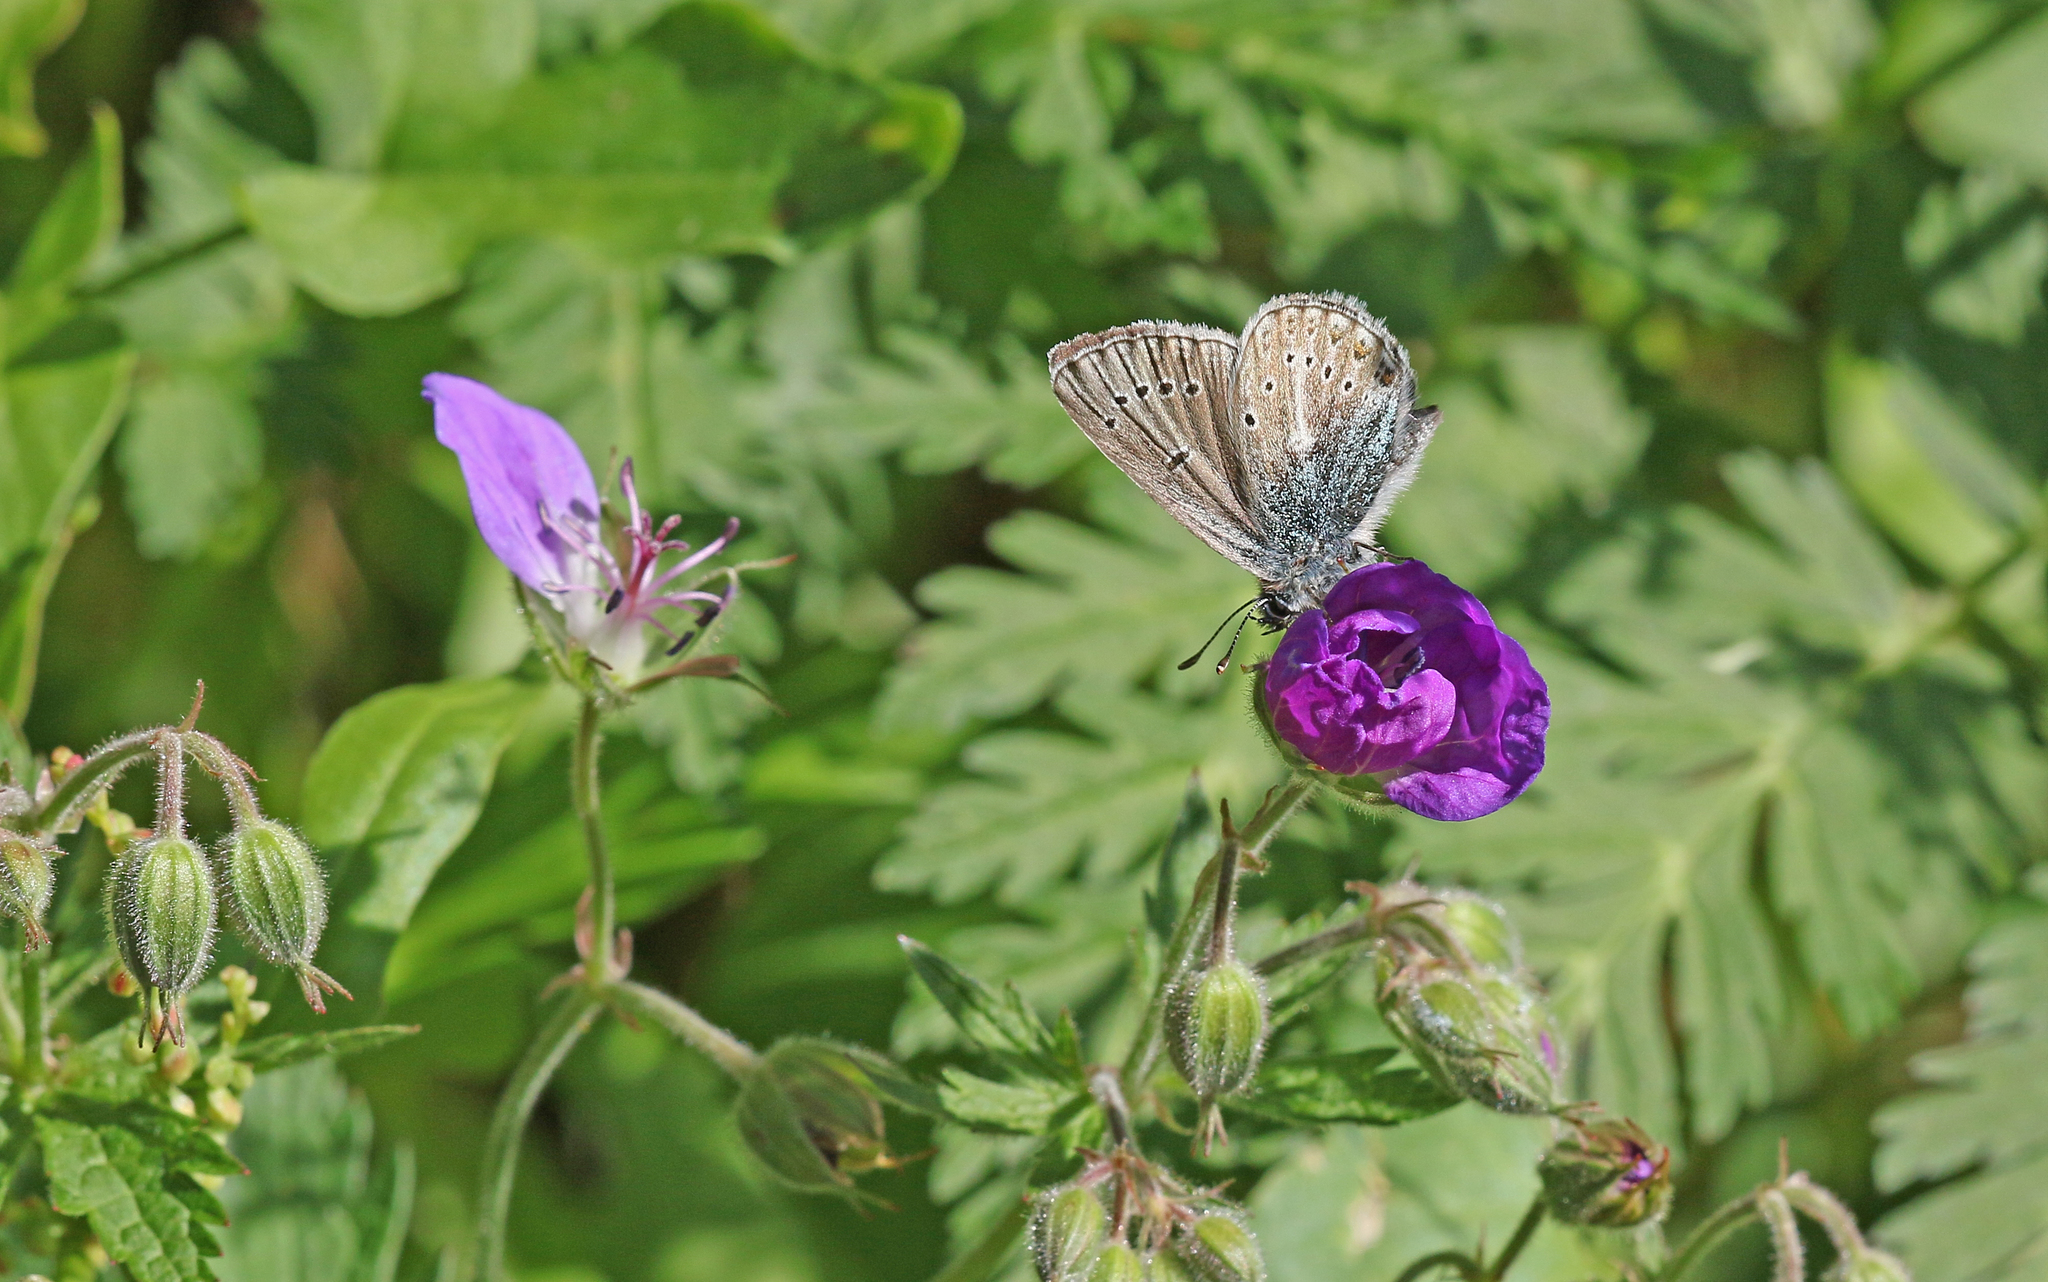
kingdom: Animalia
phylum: Arthropoda
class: Insecta
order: Lepidoptera
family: Lycaenidae
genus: Eumedonia
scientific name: Eumedonia eumedon
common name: Geranium argus
